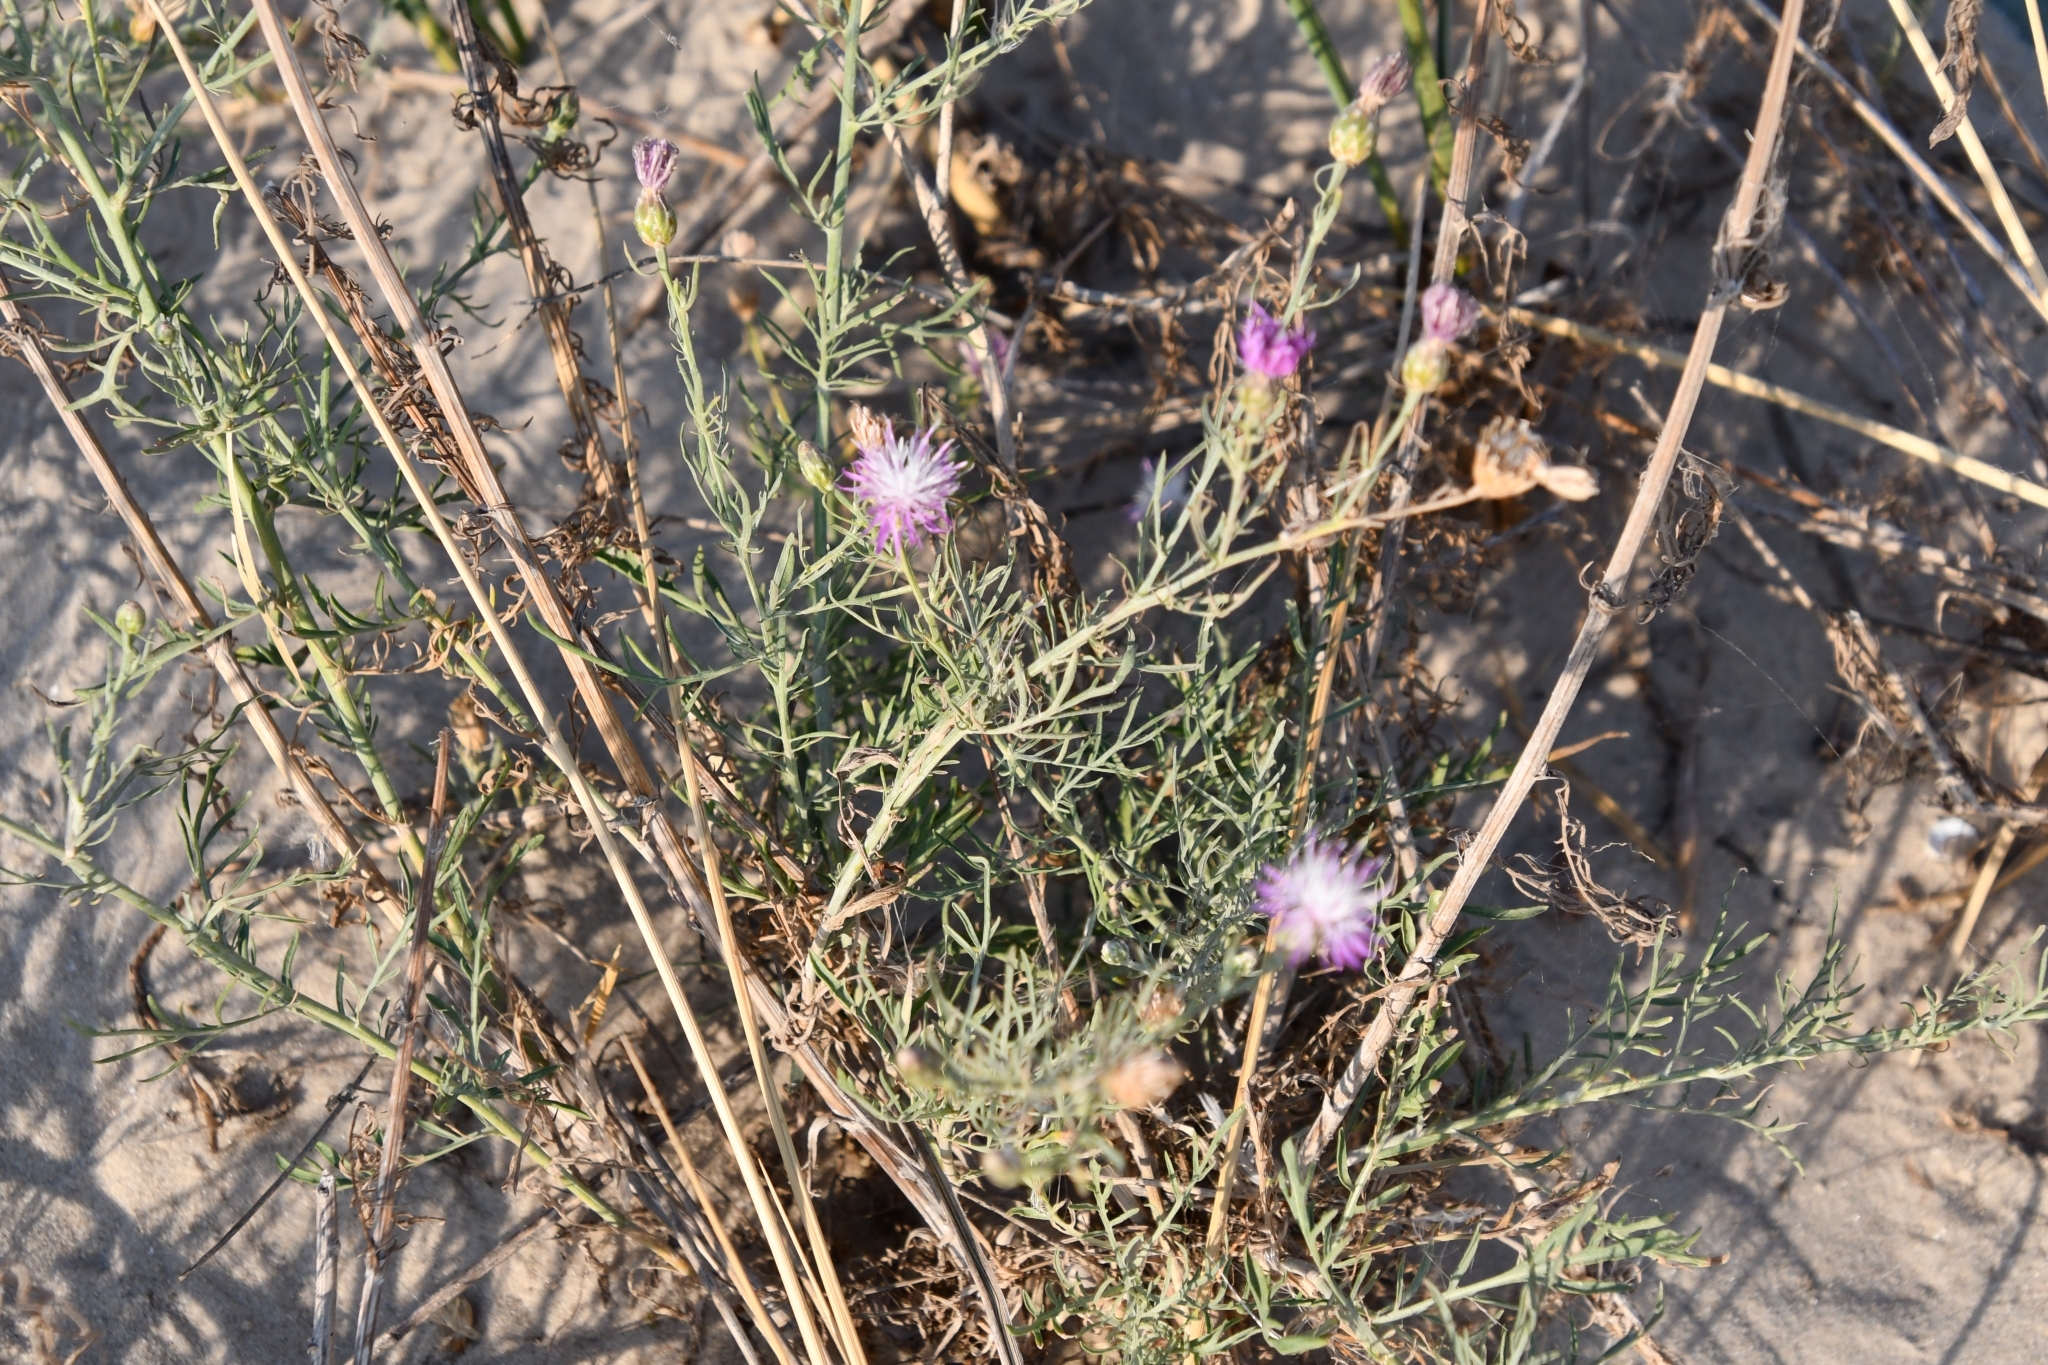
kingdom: Plantae
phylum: Tracheophyta
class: Magnoliopsida
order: Asterales
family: Asteraceae
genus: Centaurea
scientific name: Centaurea arenaria
